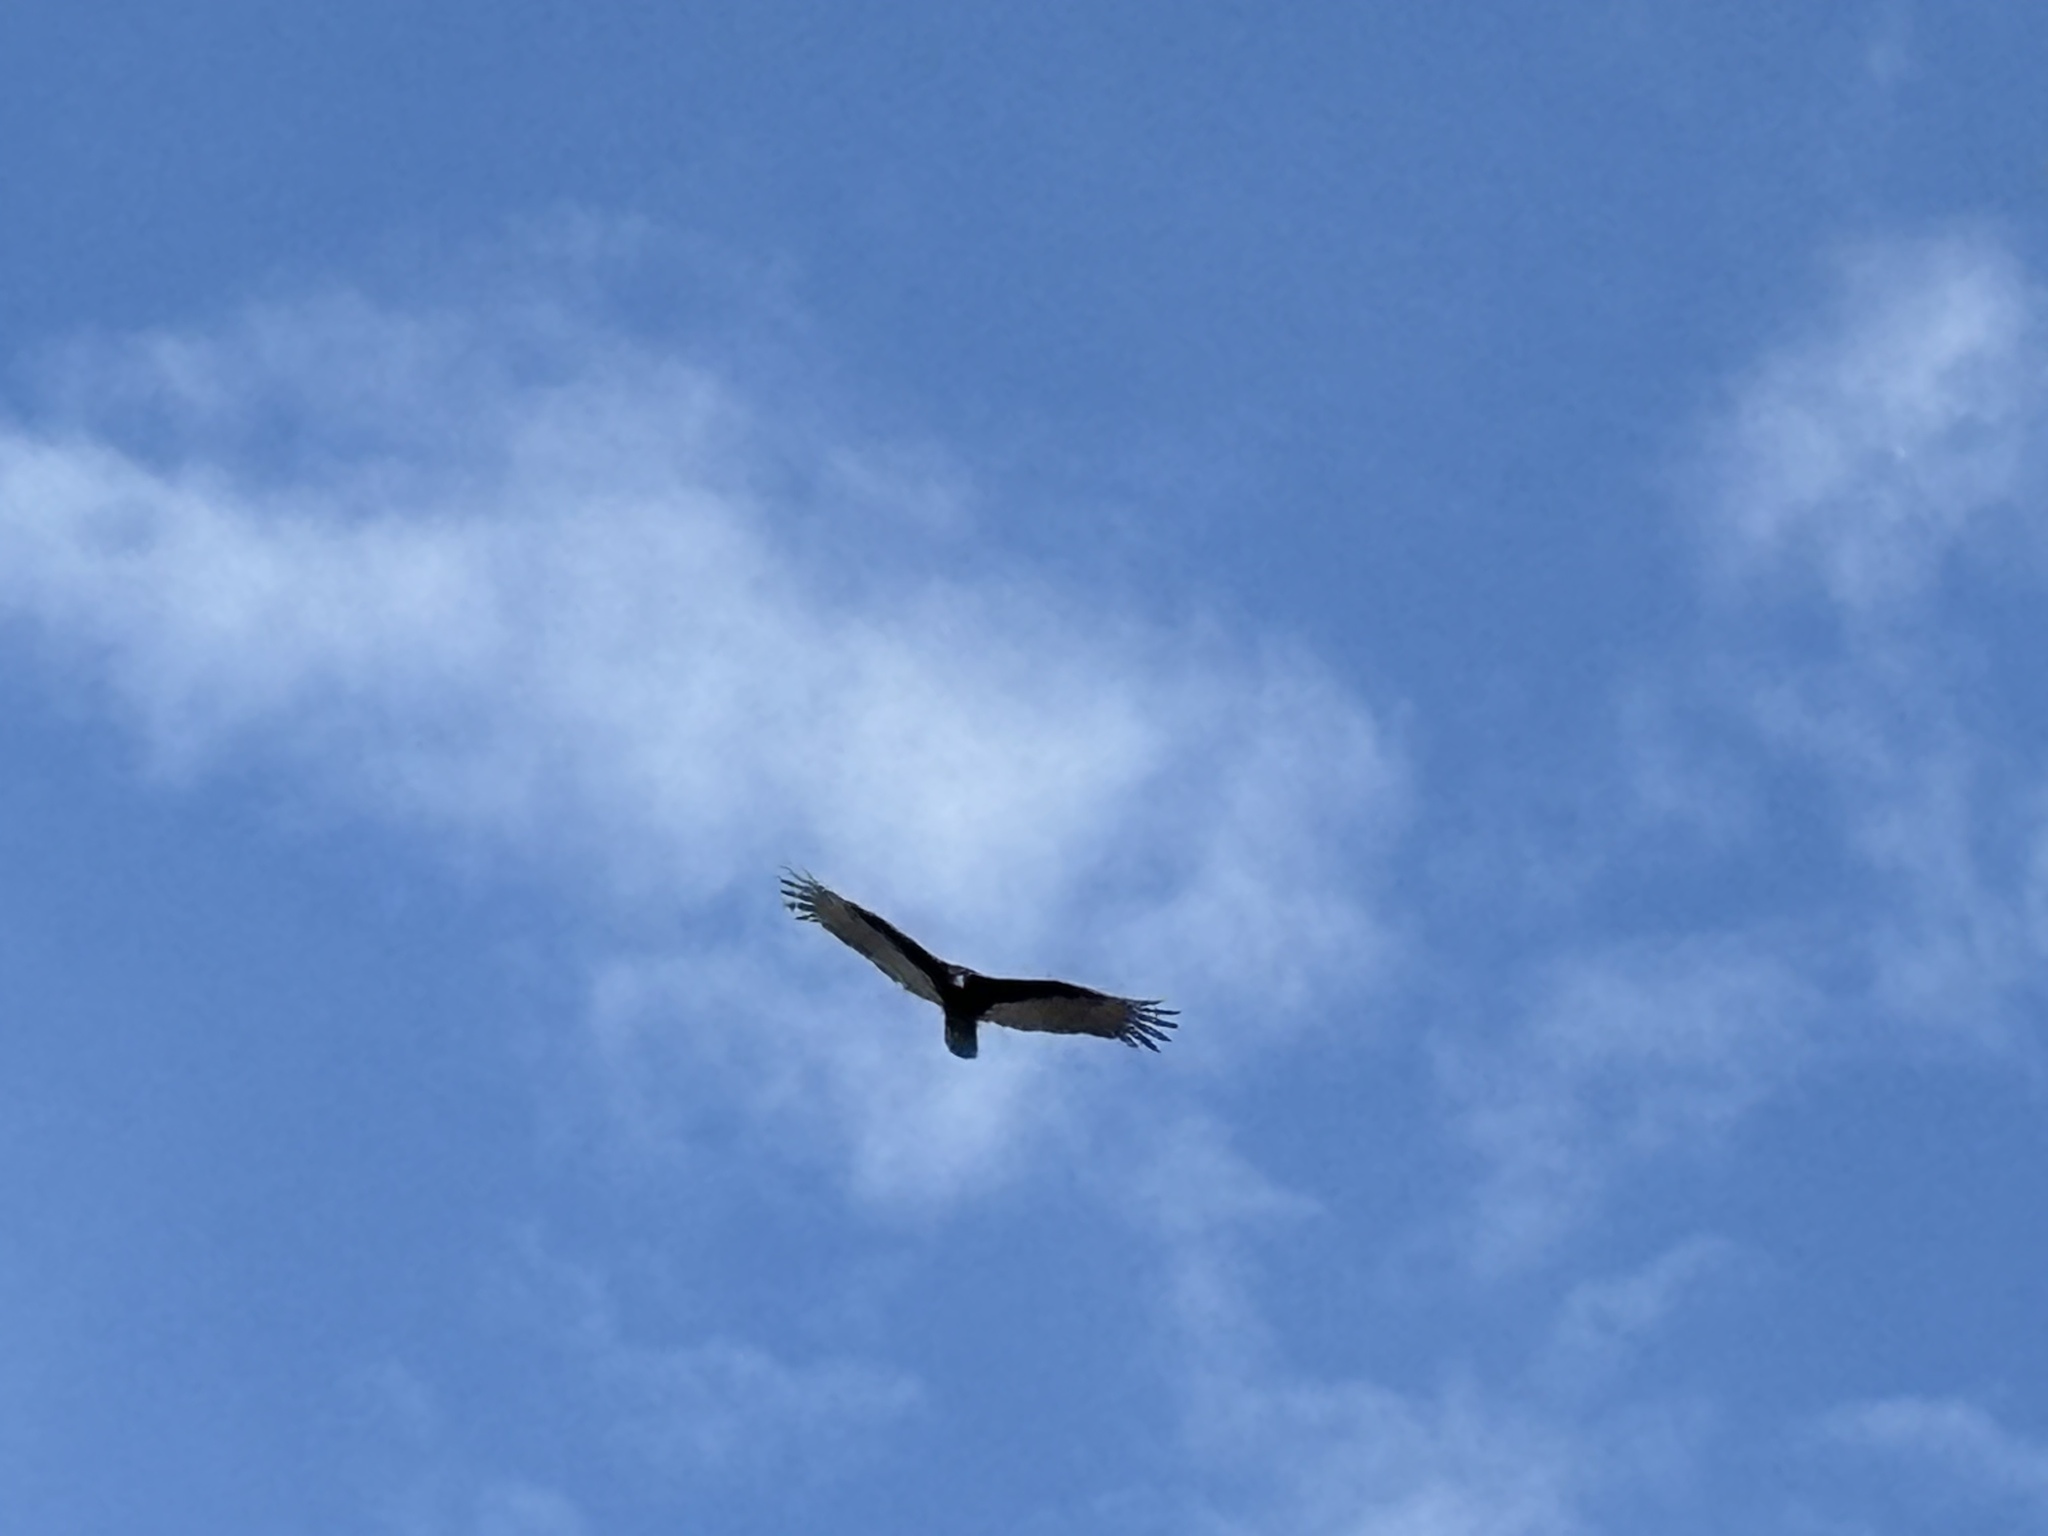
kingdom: Animalia
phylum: Chordata
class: Aves
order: Accipitriformes
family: Cathartidae
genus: Cathartes
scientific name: Cathartes aura
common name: Turkey vulture
